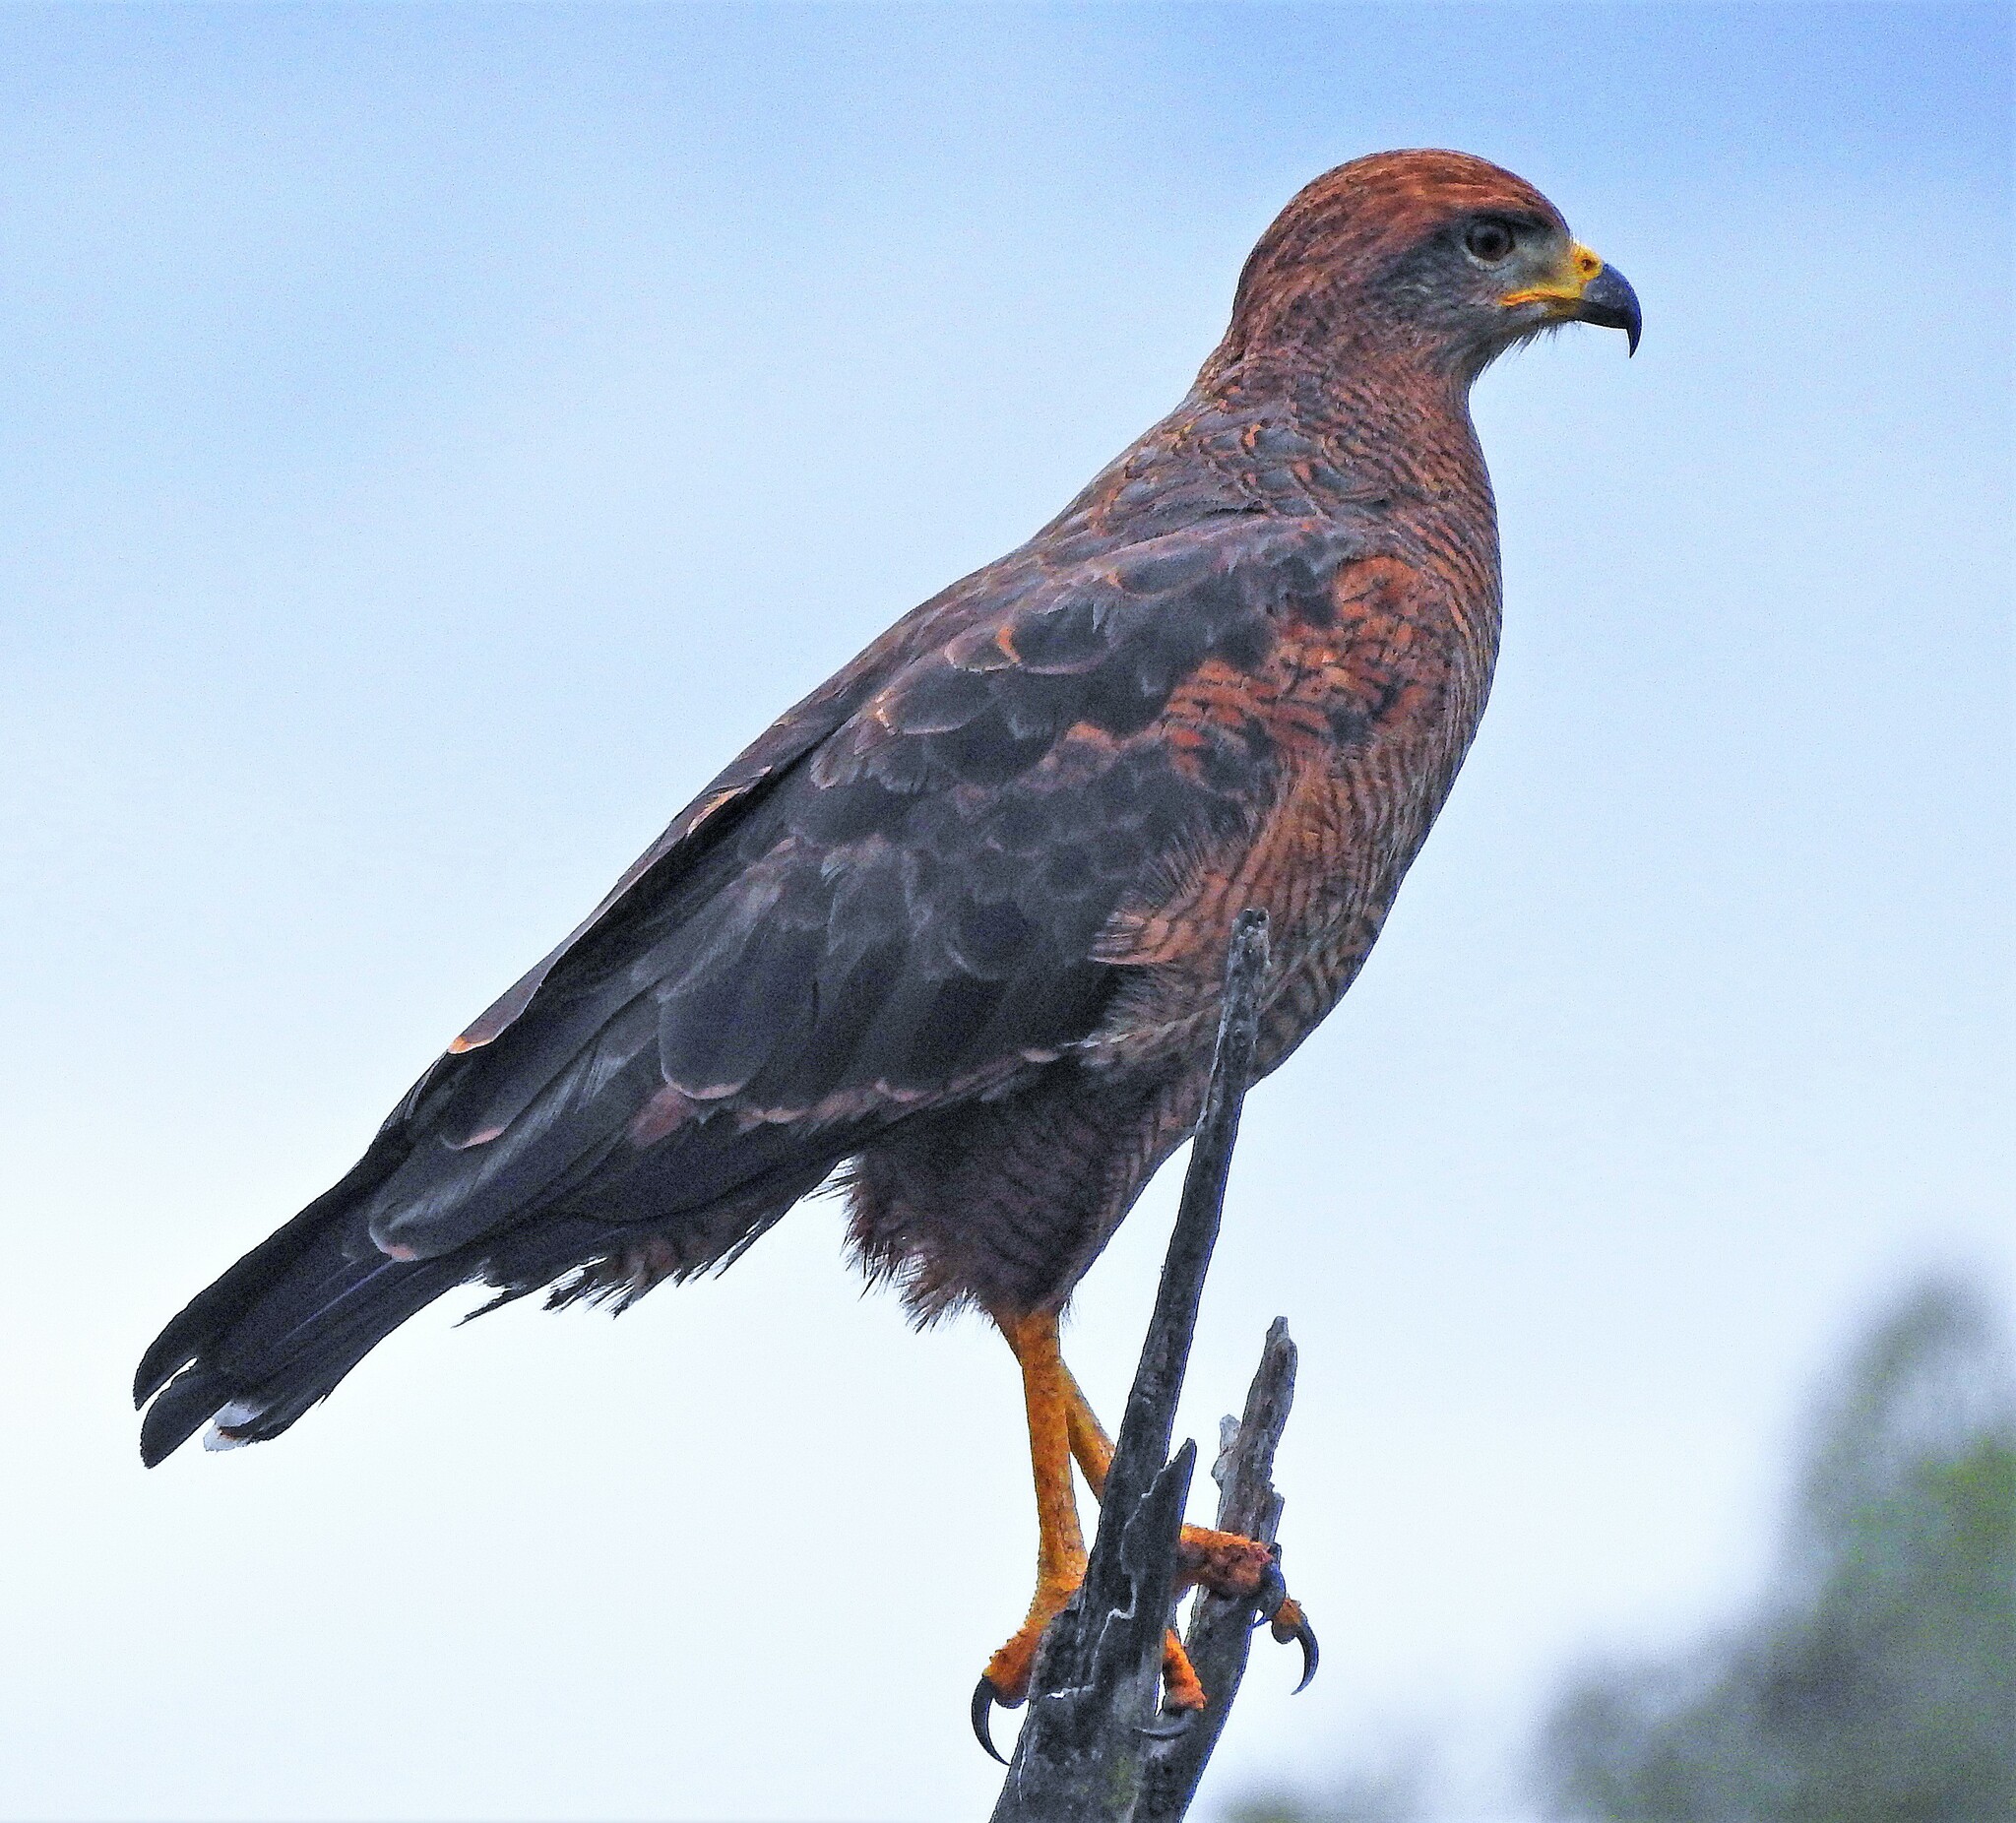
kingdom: Animalia
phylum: Chordata
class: Aves
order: Accipitriformes
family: Accipitridae
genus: Buteogallus
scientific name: Buteogallus meridionalis
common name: Savanna hawk
